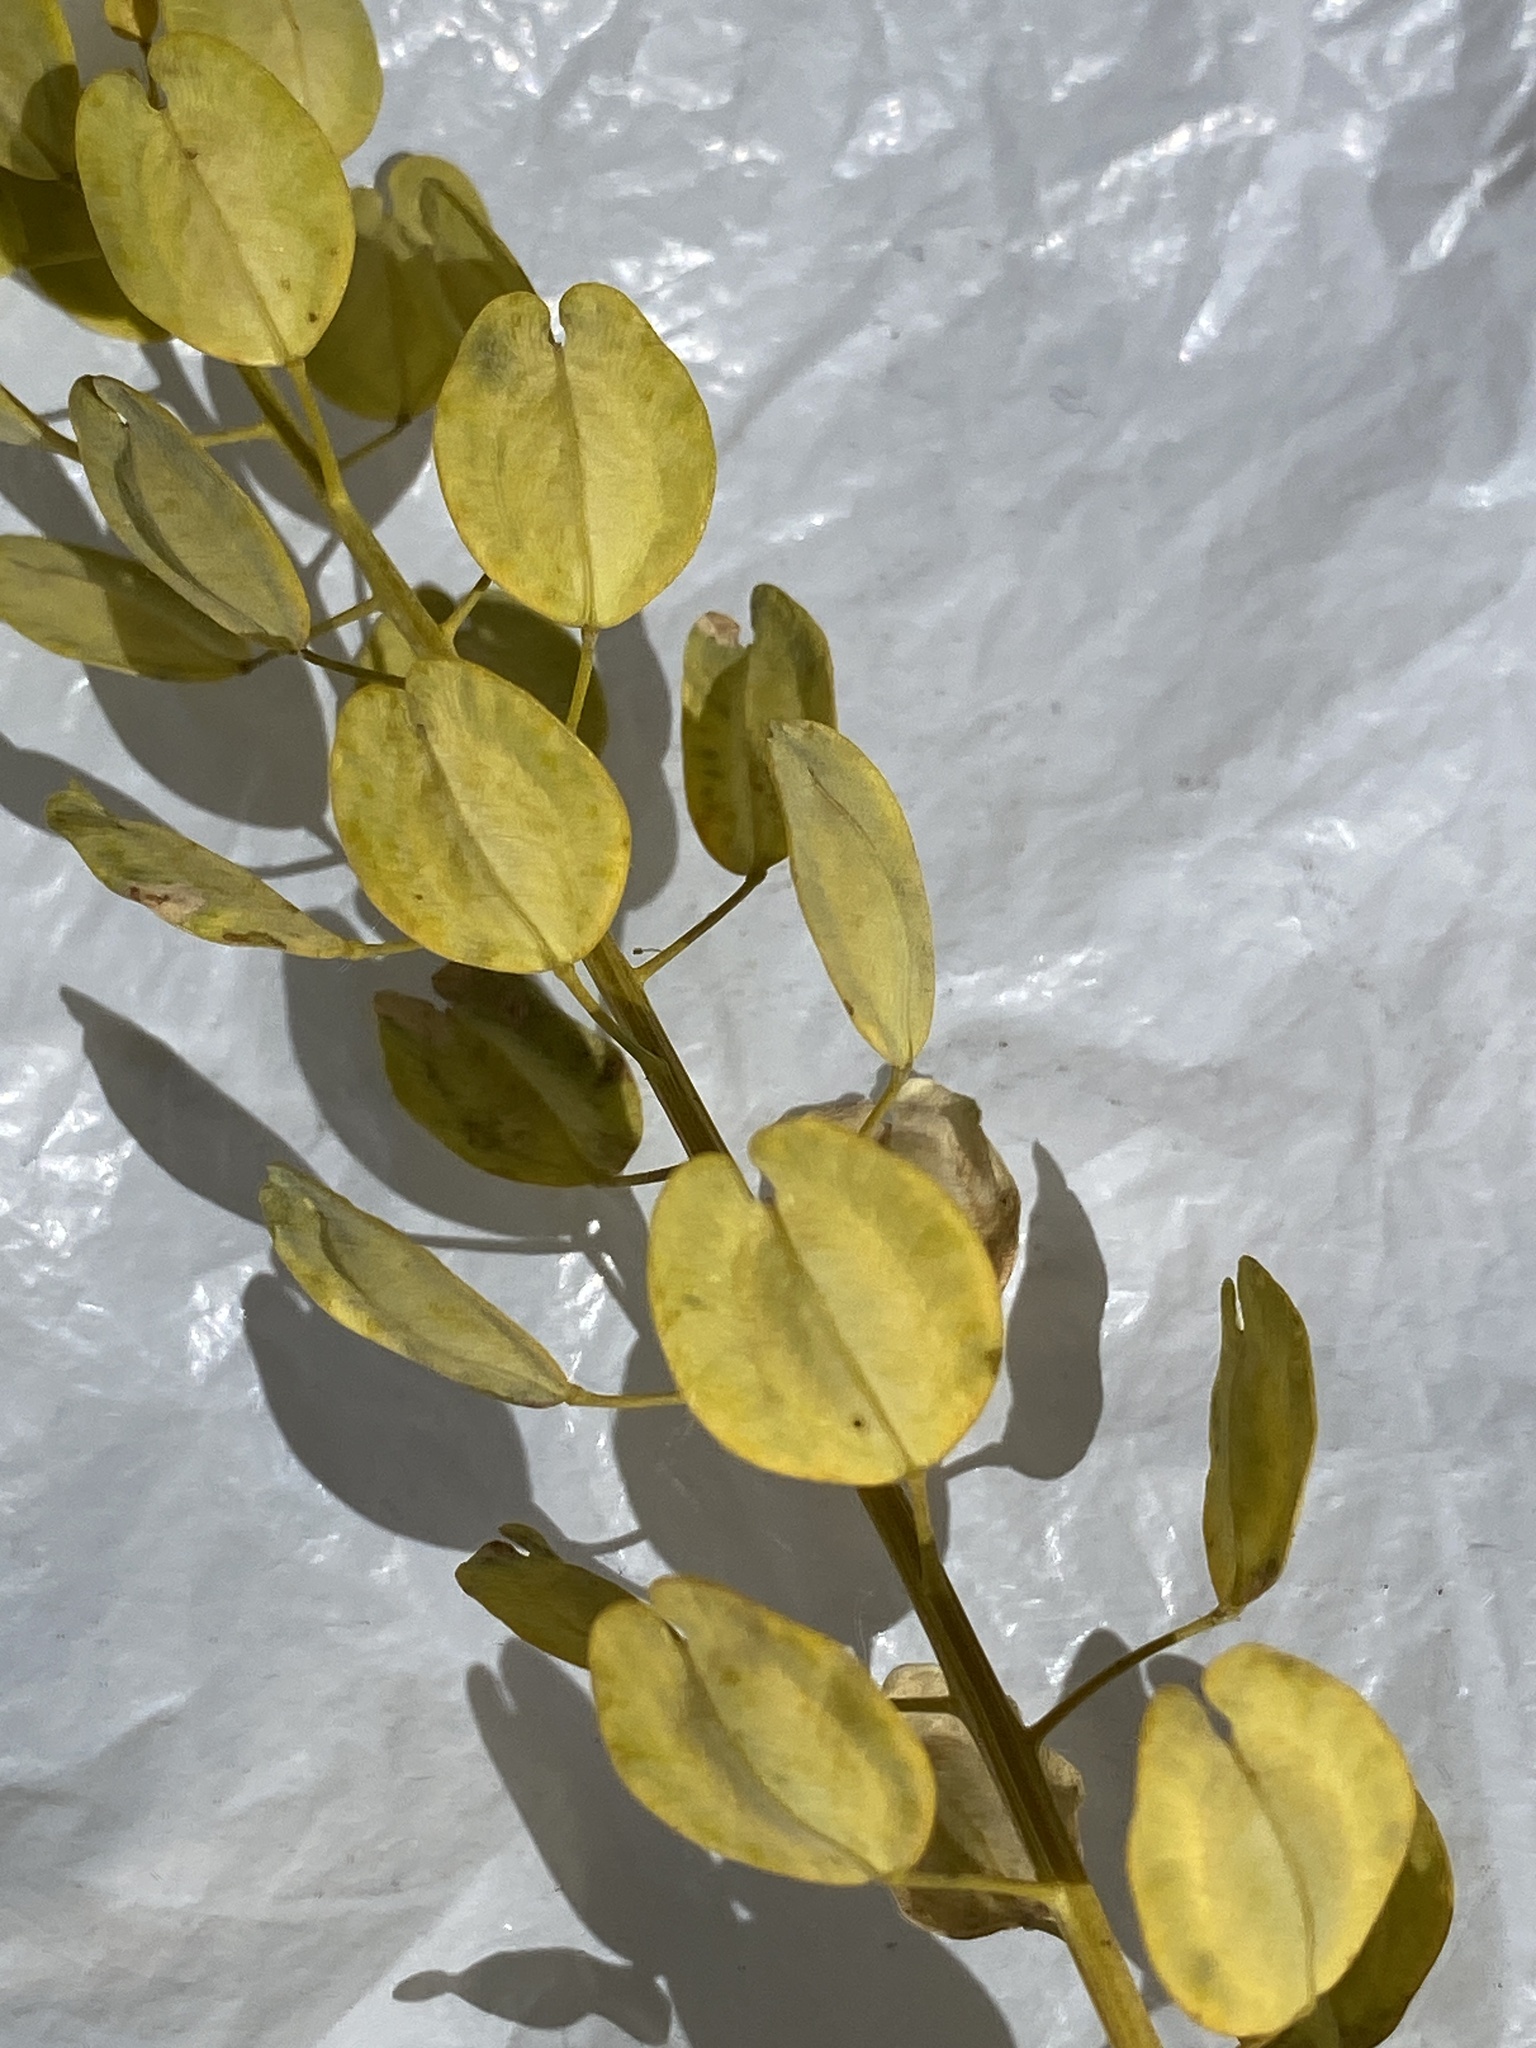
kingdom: Plantae
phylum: Tracheophyta
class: Magnoliopsida
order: Brassicales
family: Brassicaceae
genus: Thlaspi
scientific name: Thlaspi arvense
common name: Field pennycress
